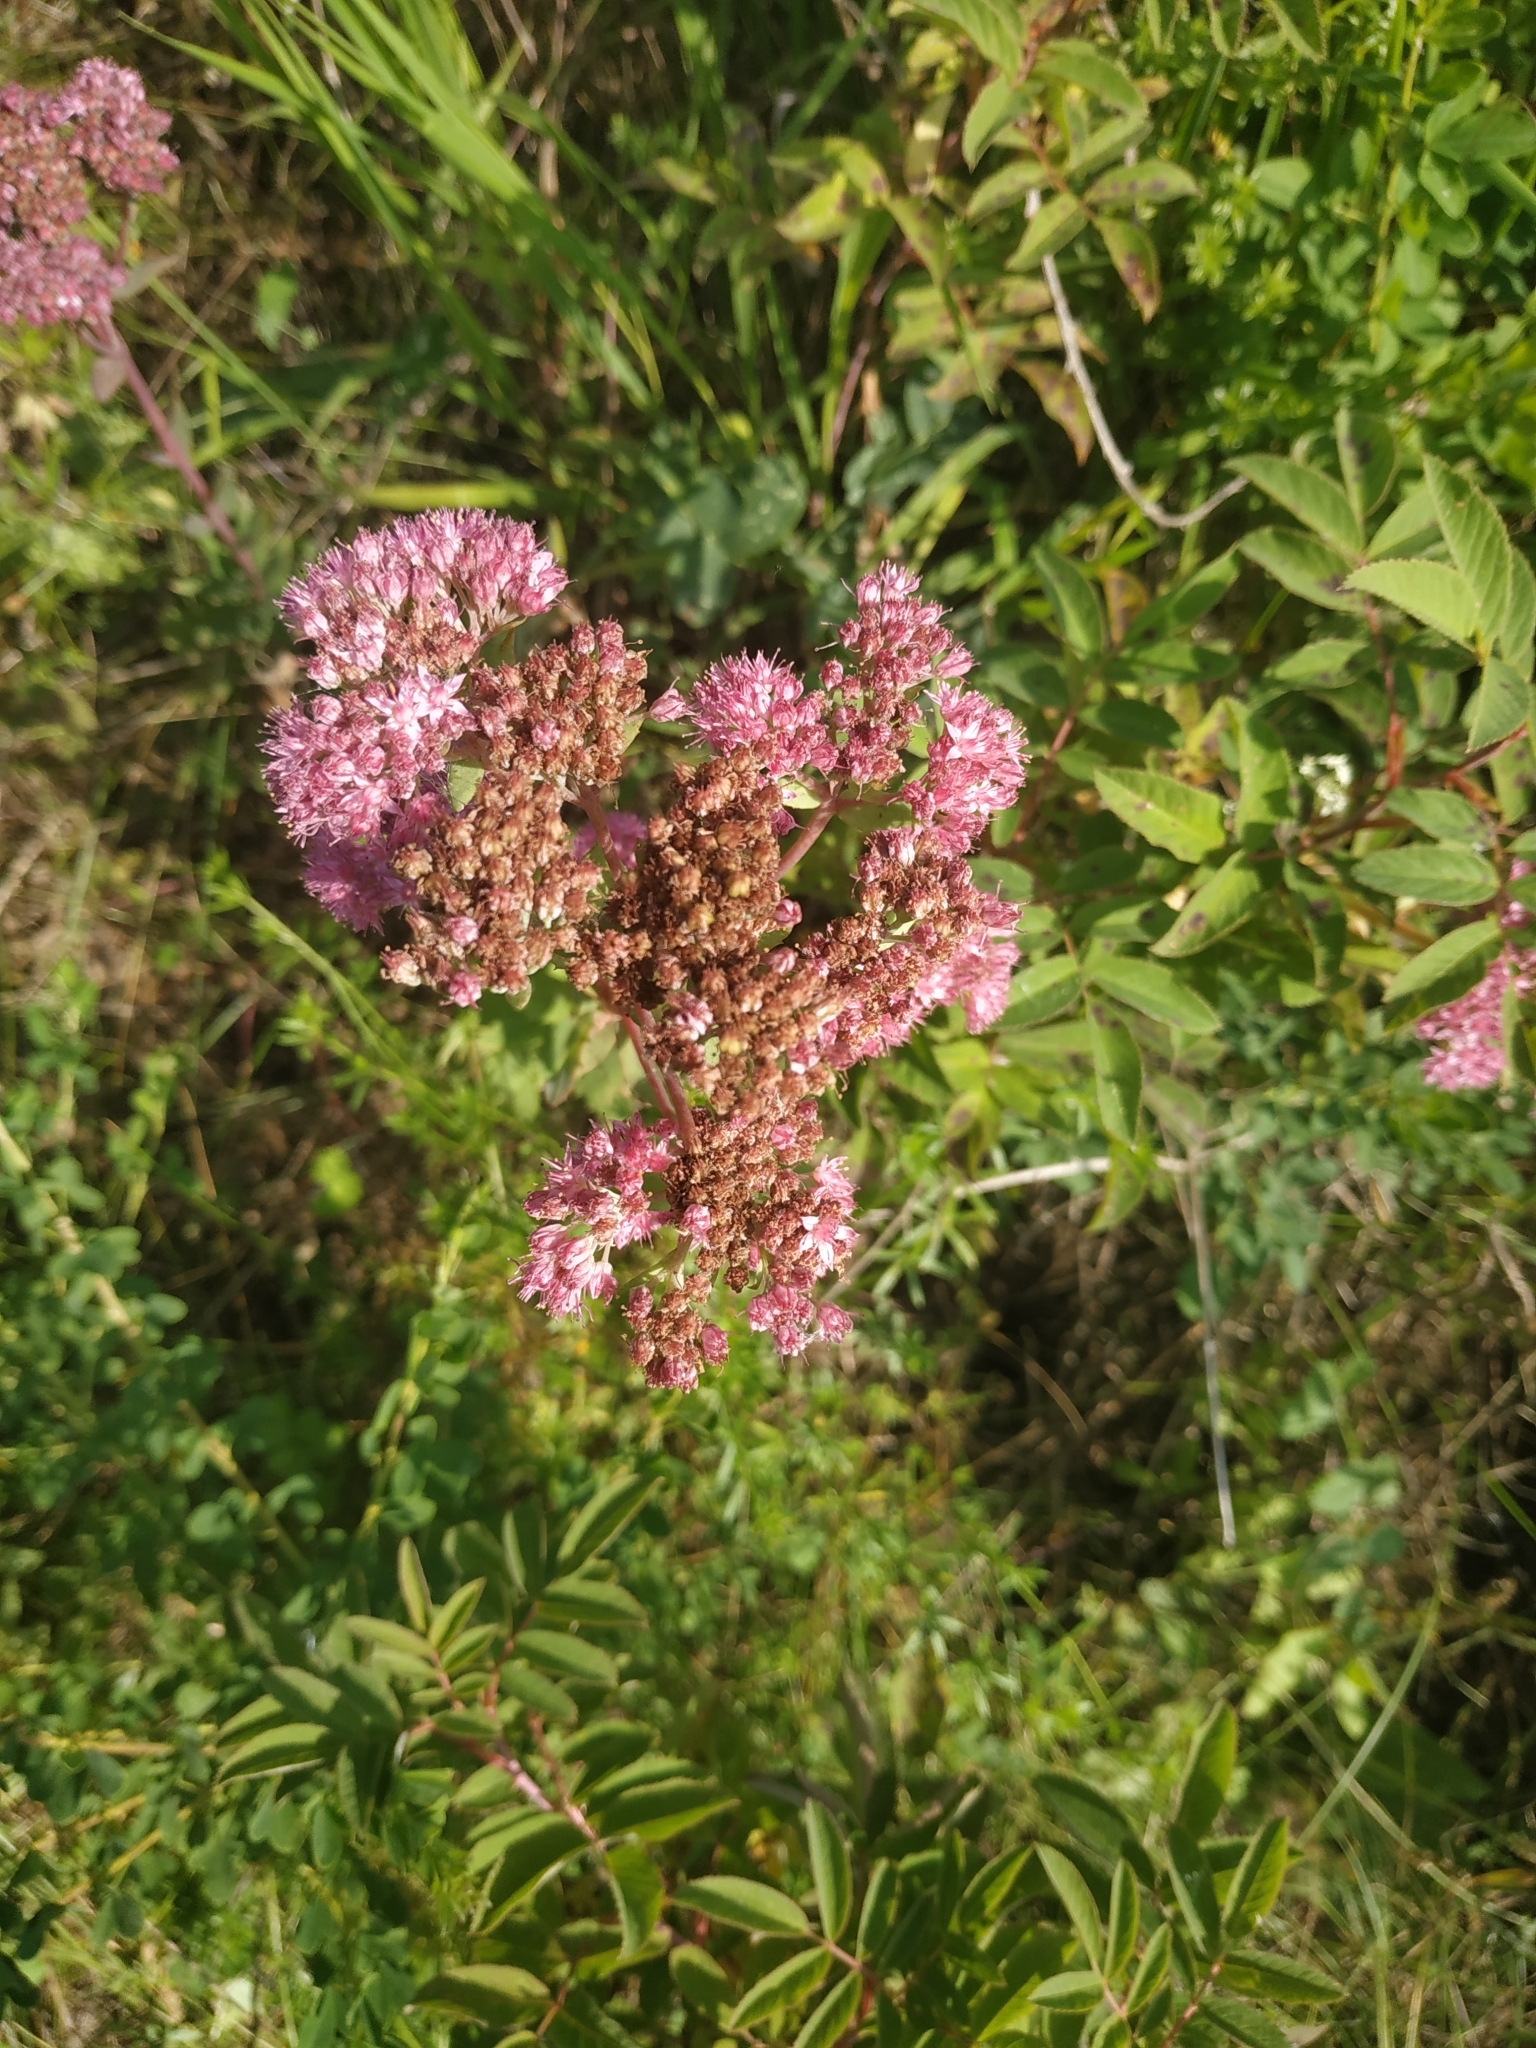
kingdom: Plantae
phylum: Tracheophyta
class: Magnoliopsida
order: Saxifragales
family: Crassulaceae
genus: Hylotelephium
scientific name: Hylotelephium telephium
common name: Live-forever
